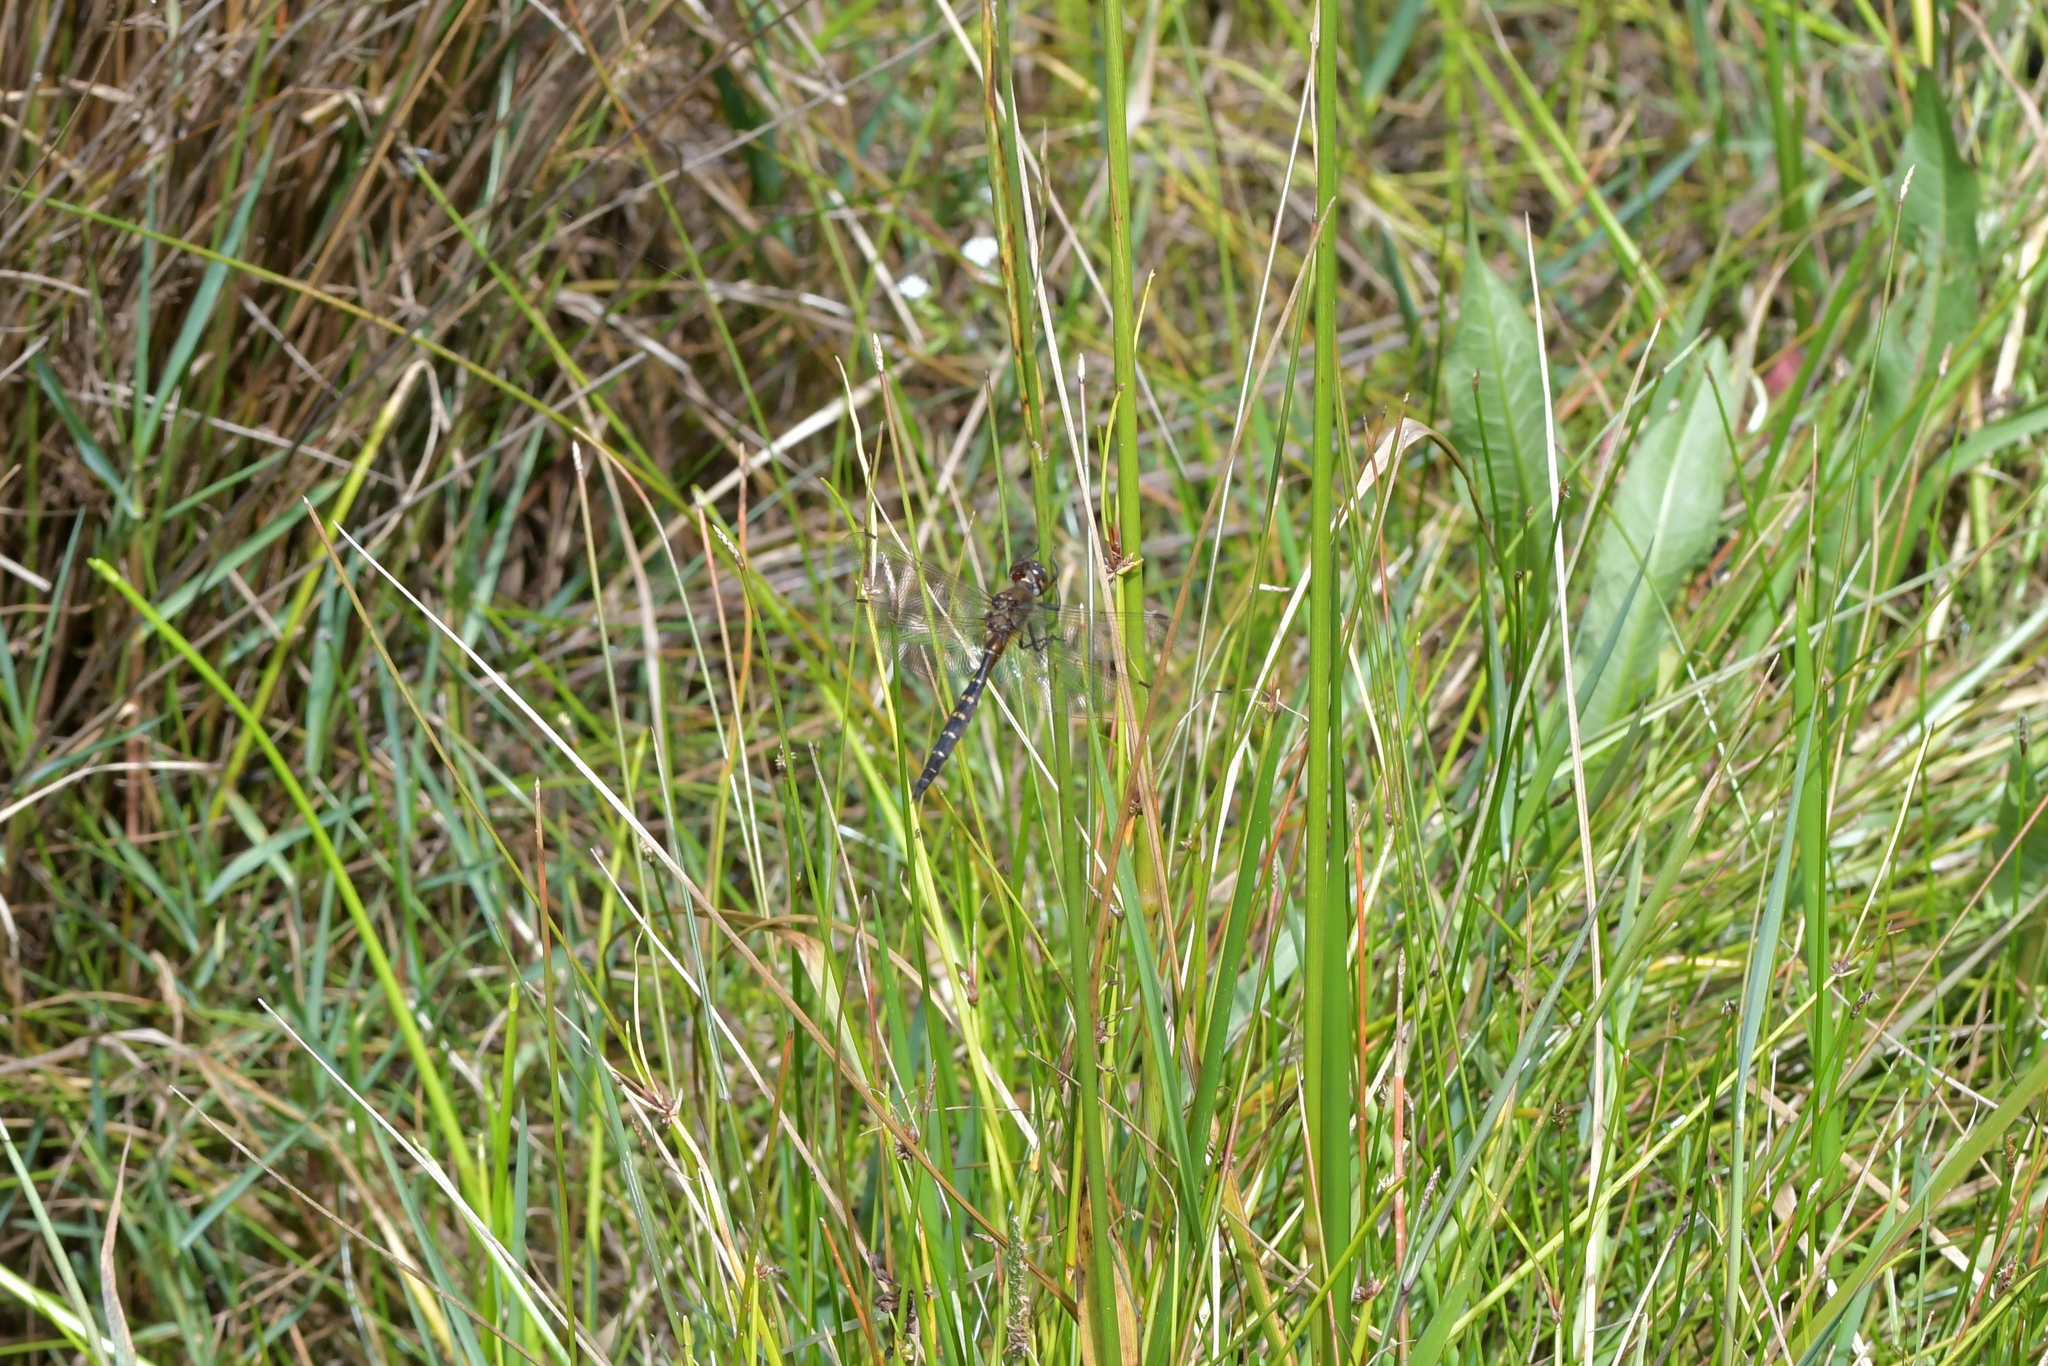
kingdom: Animalia
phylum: Arthropoda
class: Insecta
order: Odonata
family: Corduliidae
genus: Procordulia
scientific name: Procordulia smithii
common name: Ranger dragonfly
